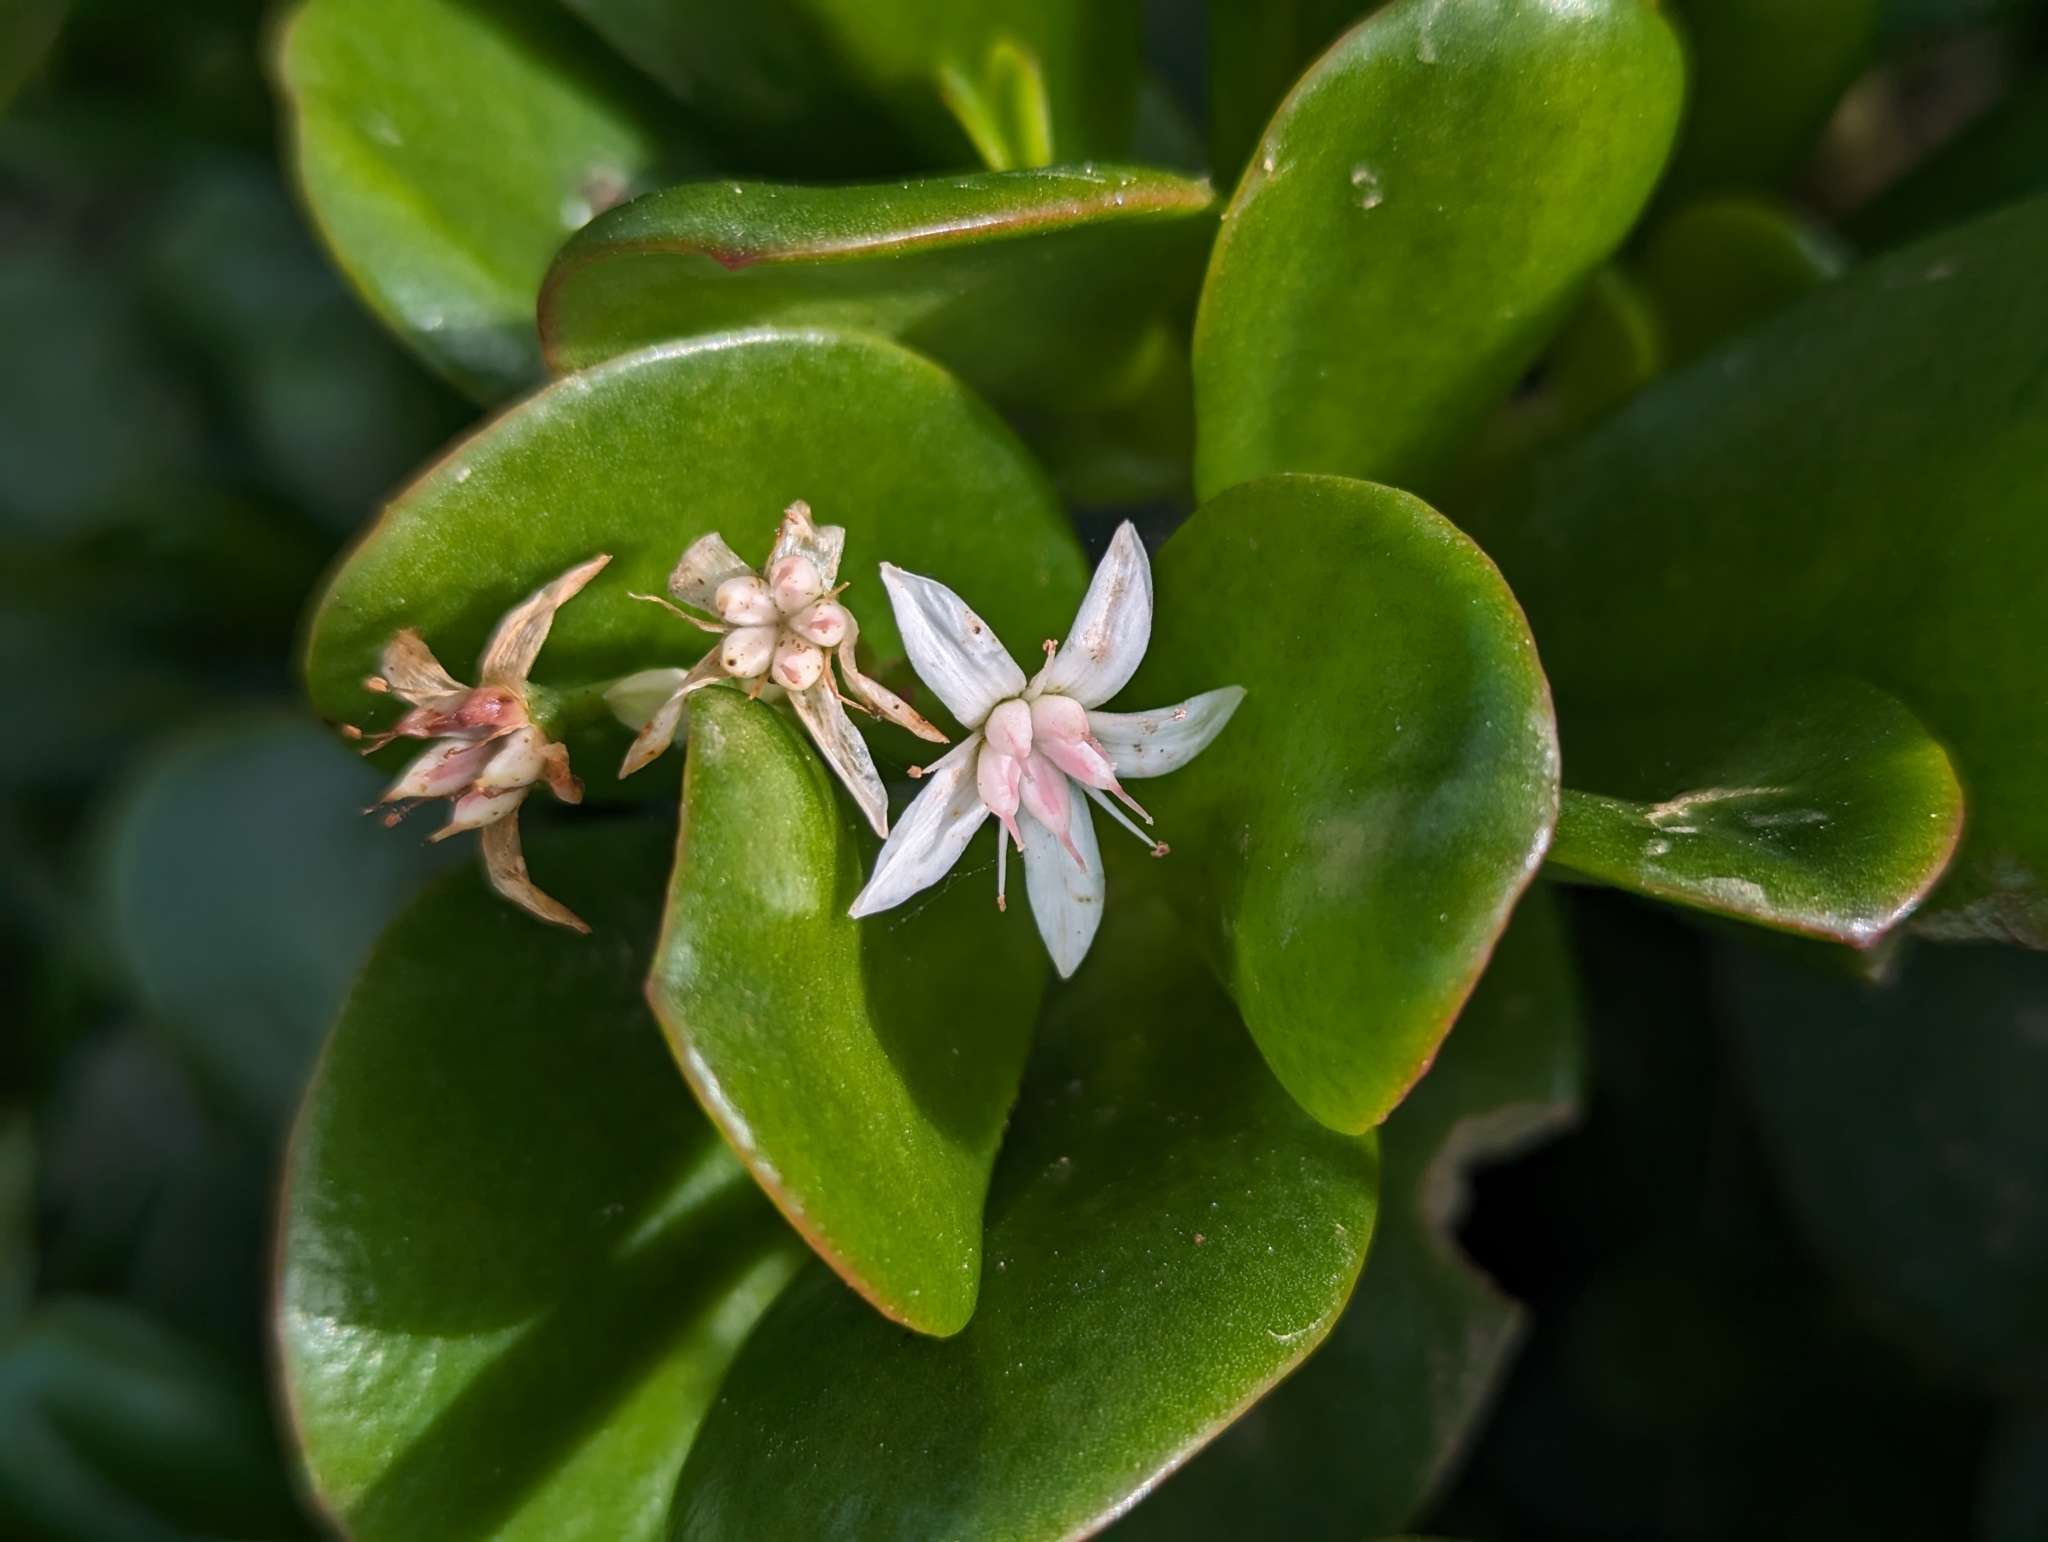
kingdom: Plantae
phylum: Tracheophyta
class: Magnoliopsida
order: Saxifragales
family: Crassulaceae
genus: Crassula
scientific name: Crassula ovata
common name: Jade plant
